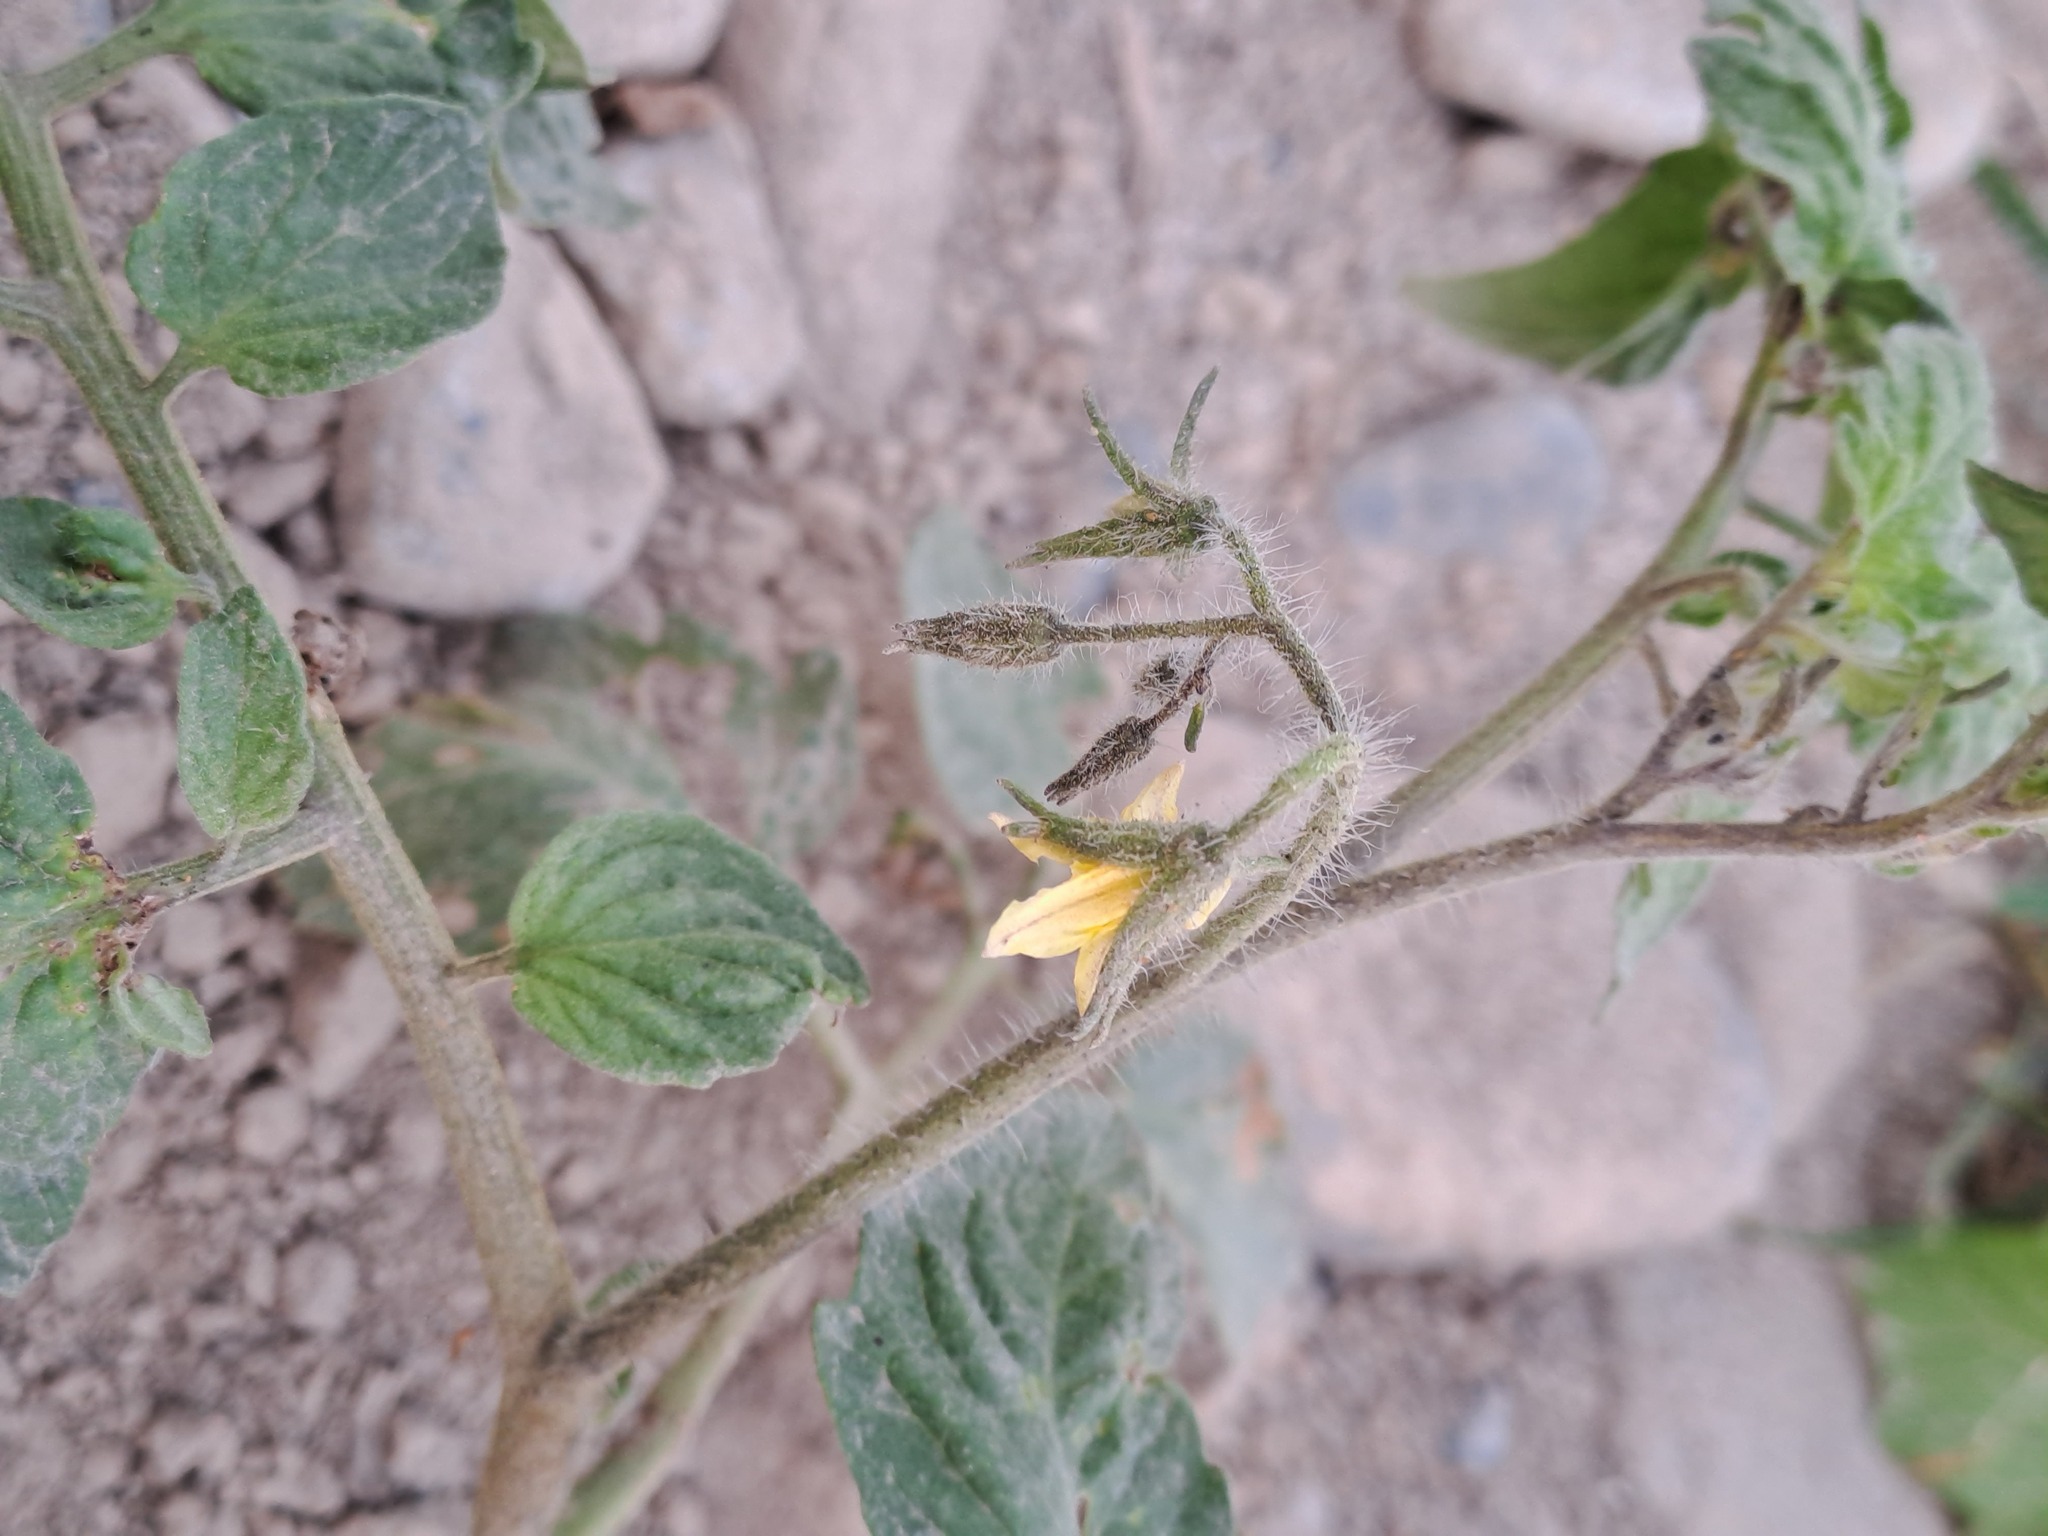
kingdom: Plantae
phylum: Tracheophyta
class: Magnoliopsida
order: Solanales
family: Solanaceae
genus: Solanum
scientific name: Solanum lycopersicum
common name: Garden tomato
